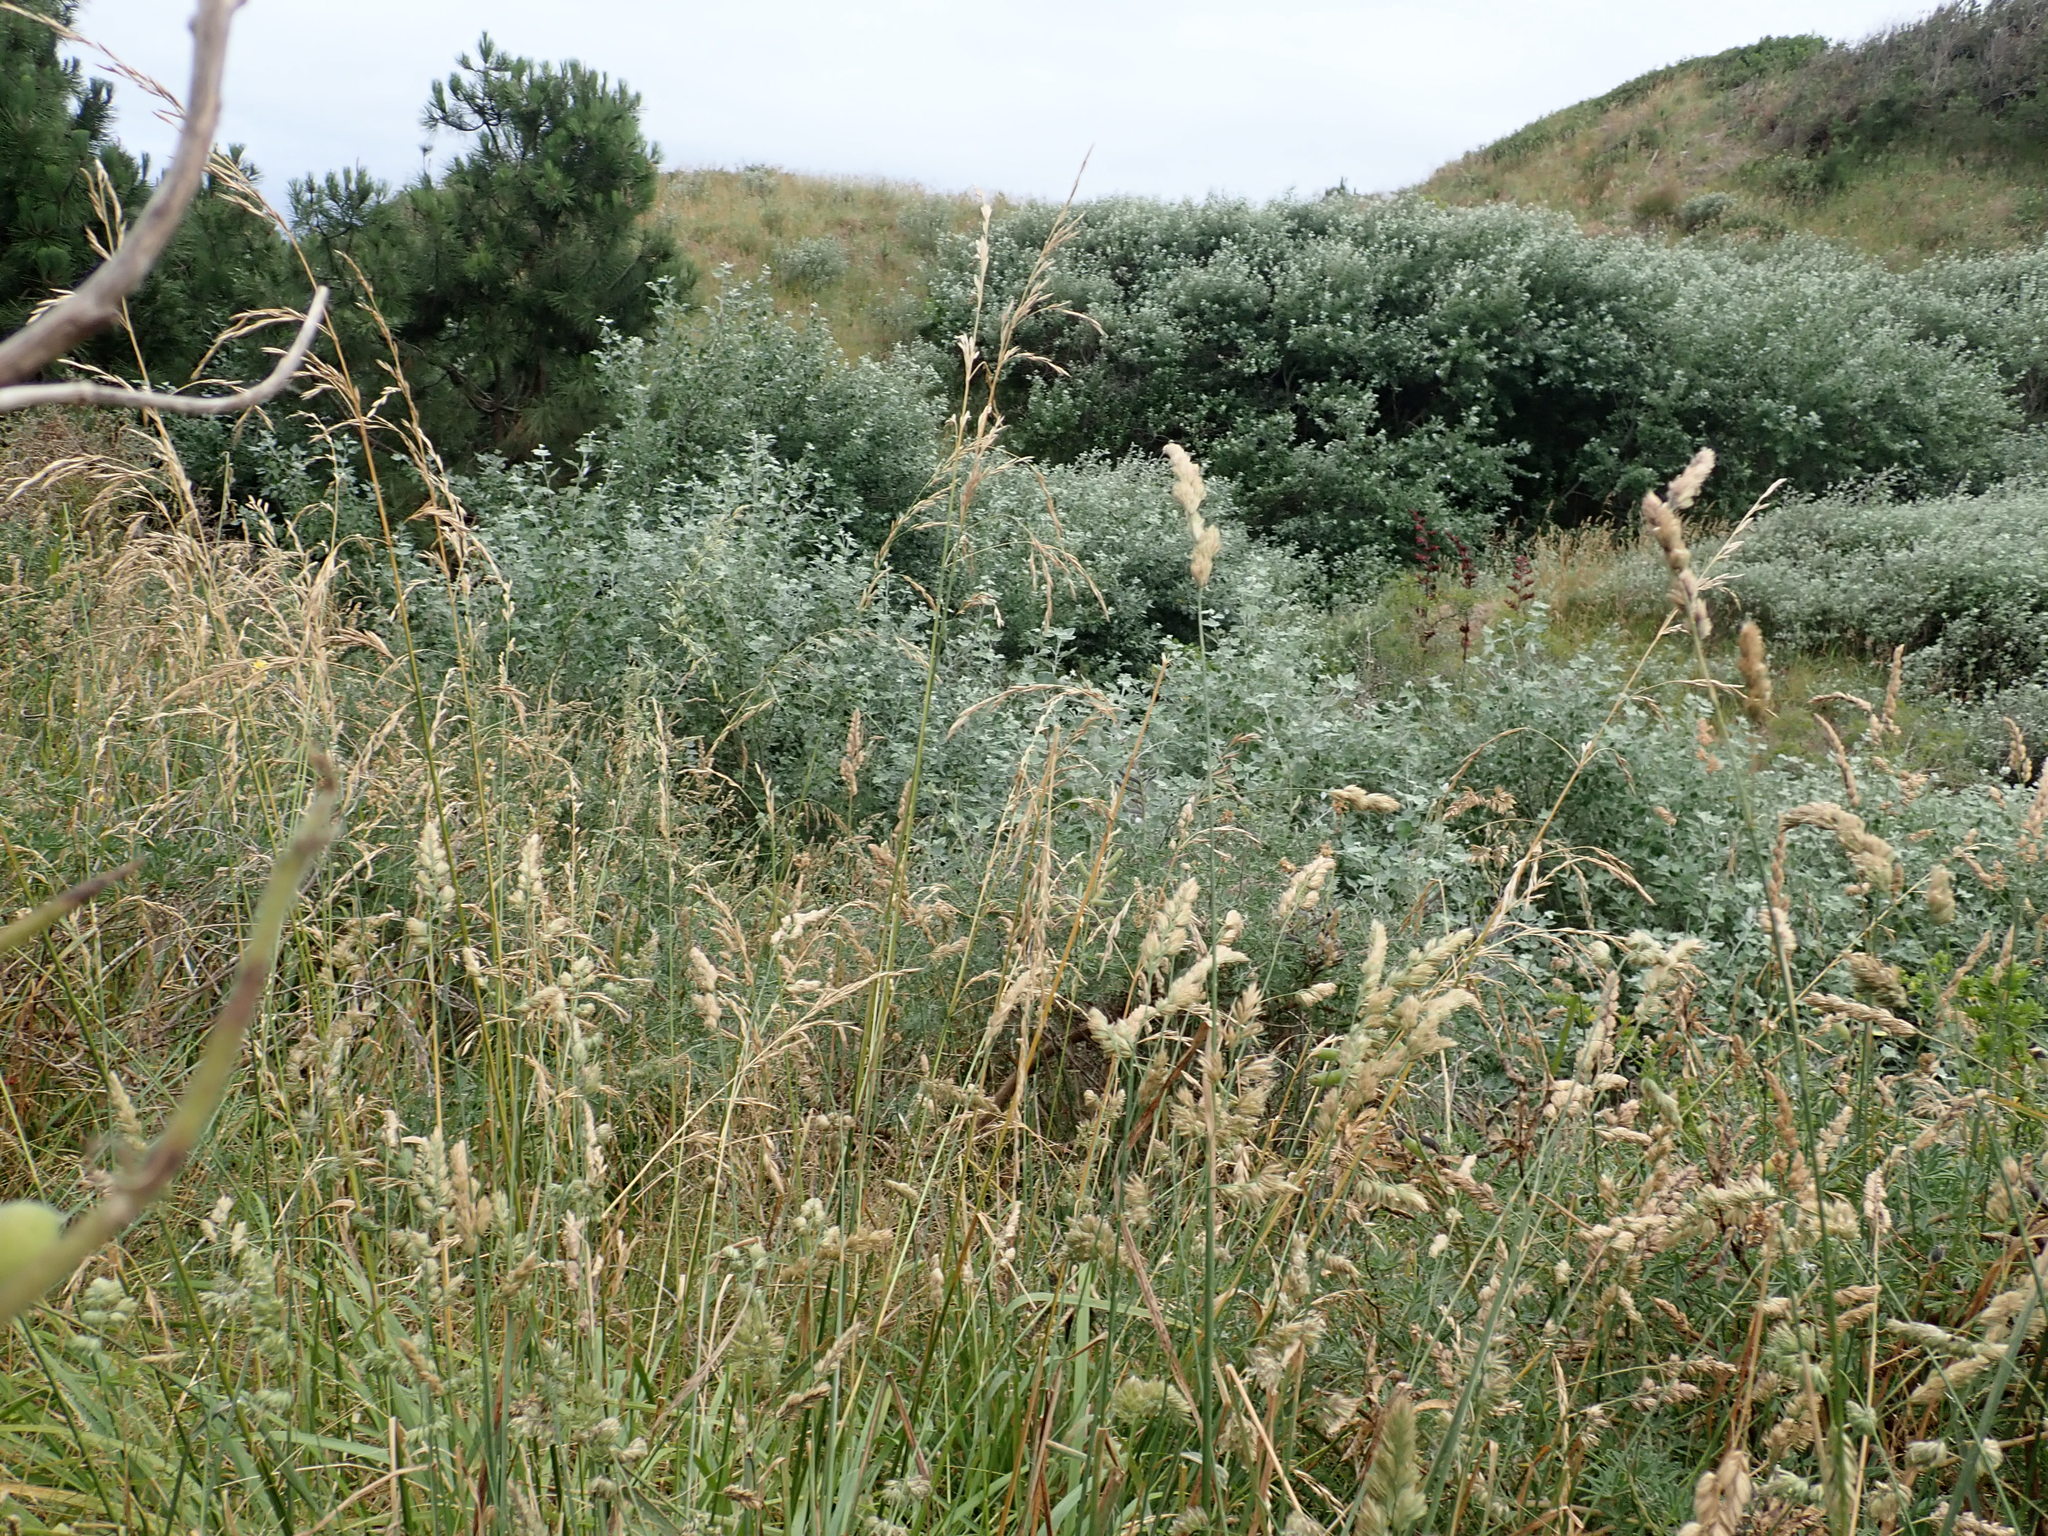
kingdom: Plantae
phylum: Tracheophyta
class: Magnoliopsida
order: Malpighiales
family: Salicaceae
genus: Populus
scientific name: Populus alba
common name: White poplar
